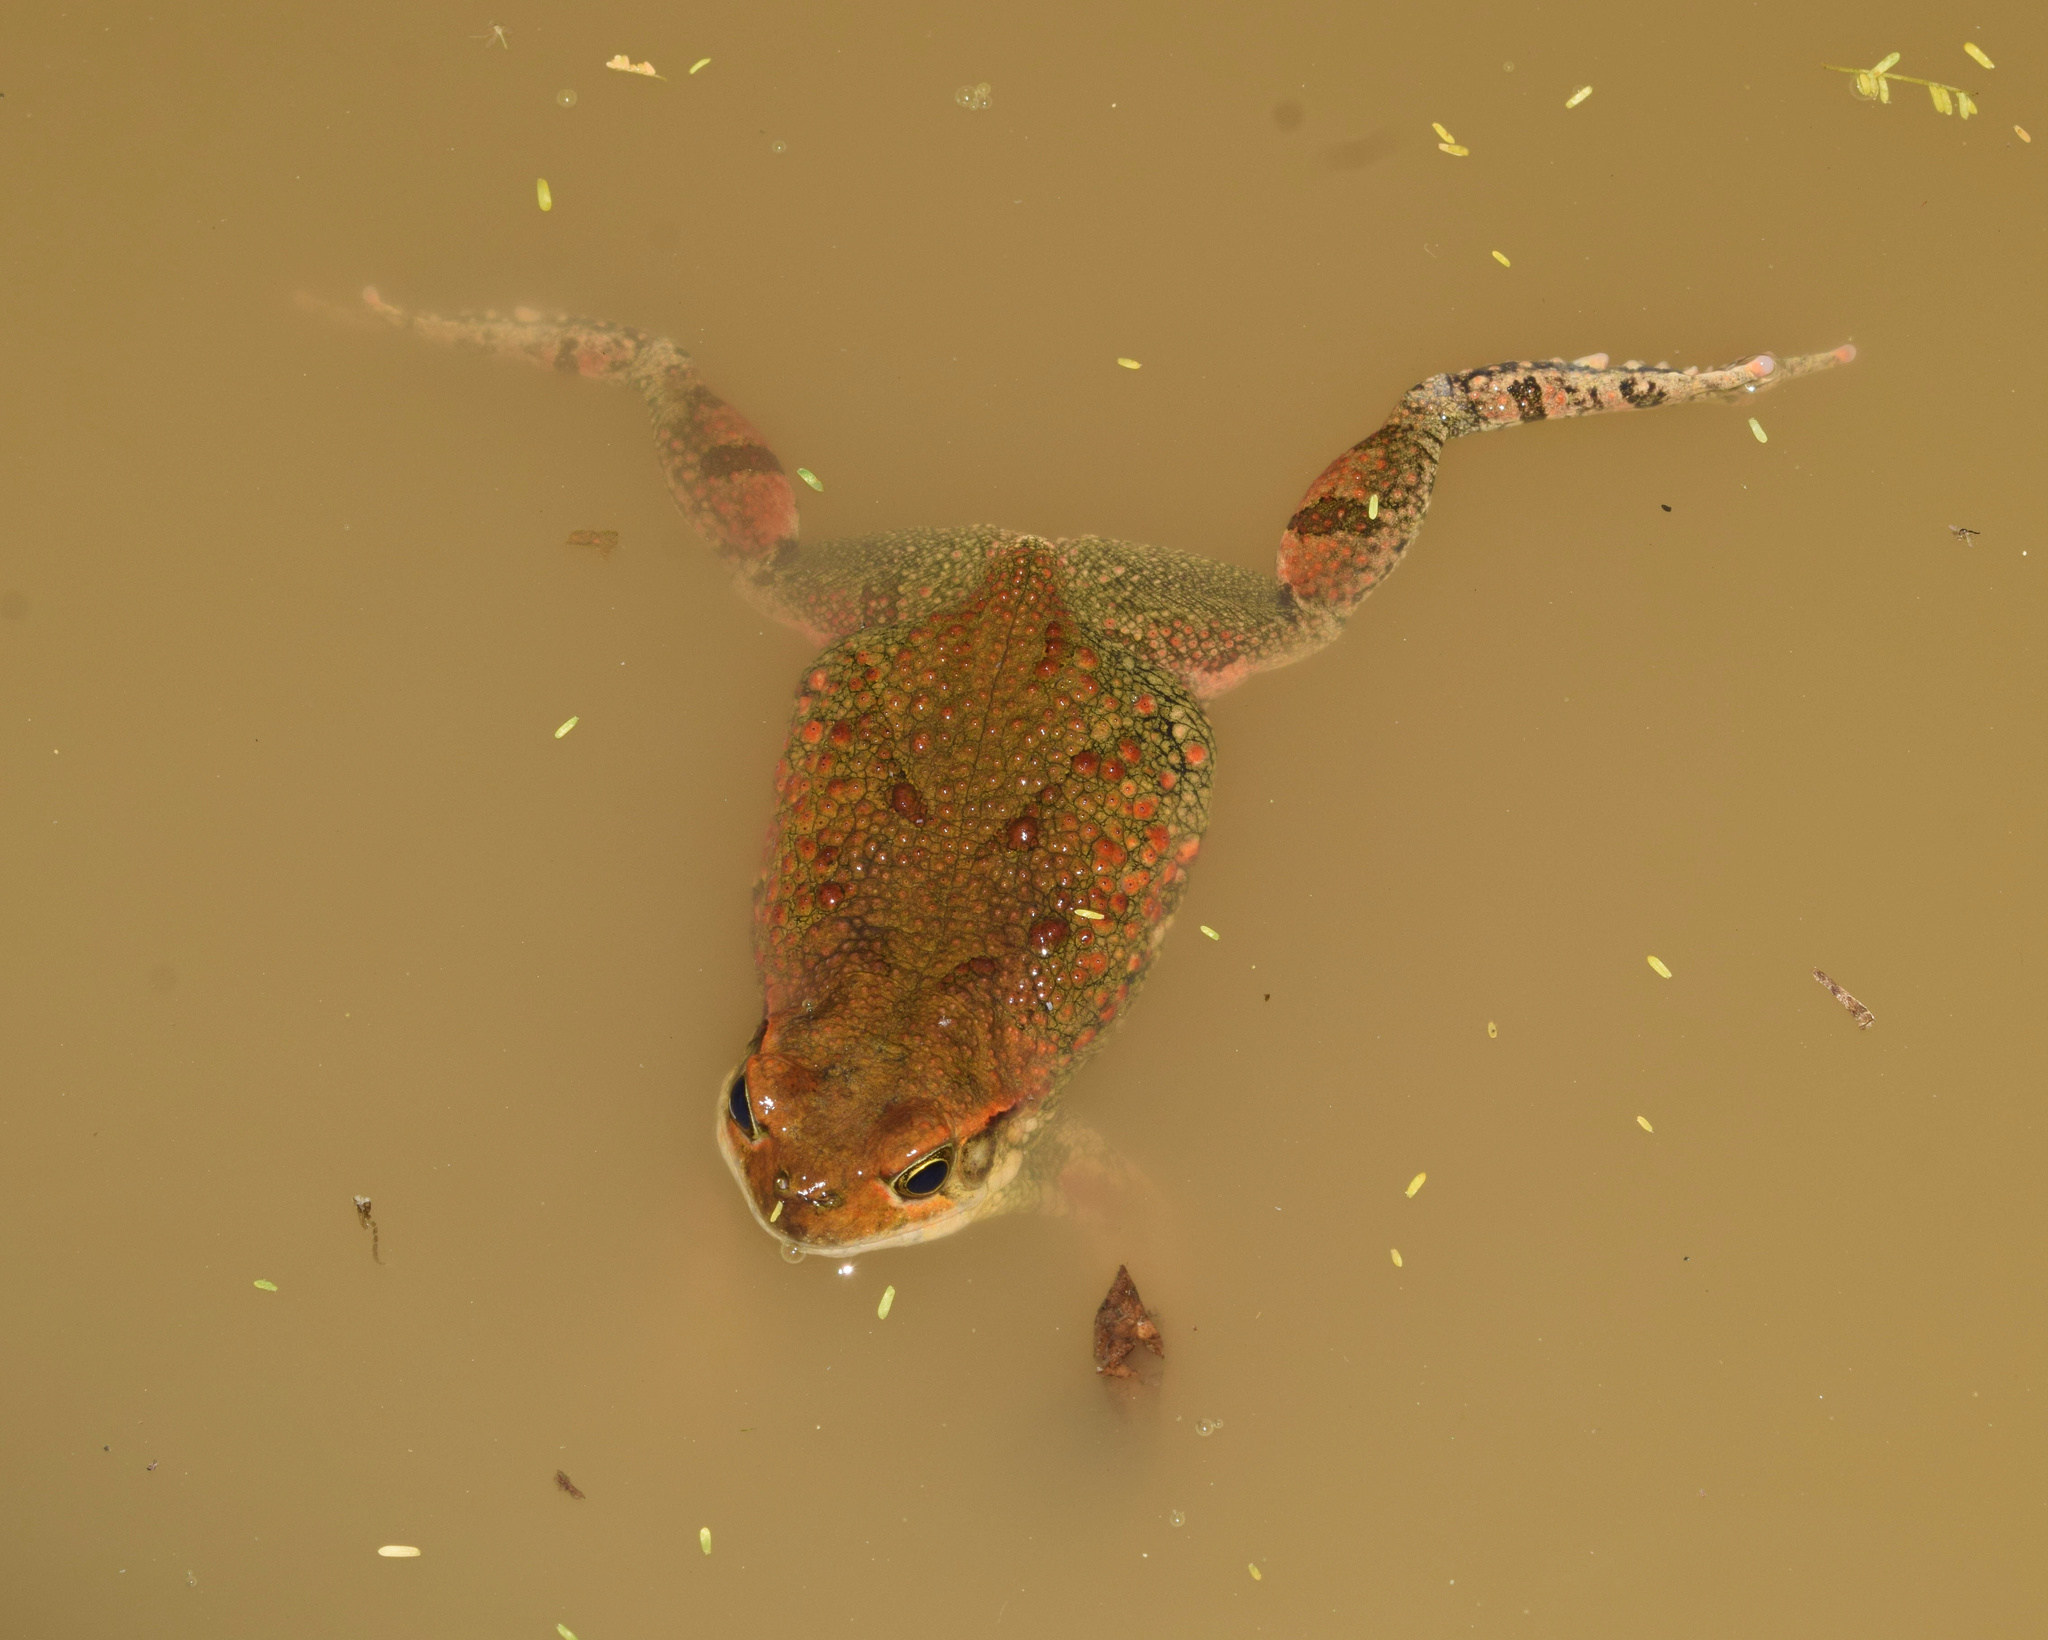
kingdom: Animalia
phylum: Chordata
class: Amphibia
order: Anura
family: Bufonidae
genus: Schismaderma
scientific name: Schismaderma carens
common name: African split-skin toad
